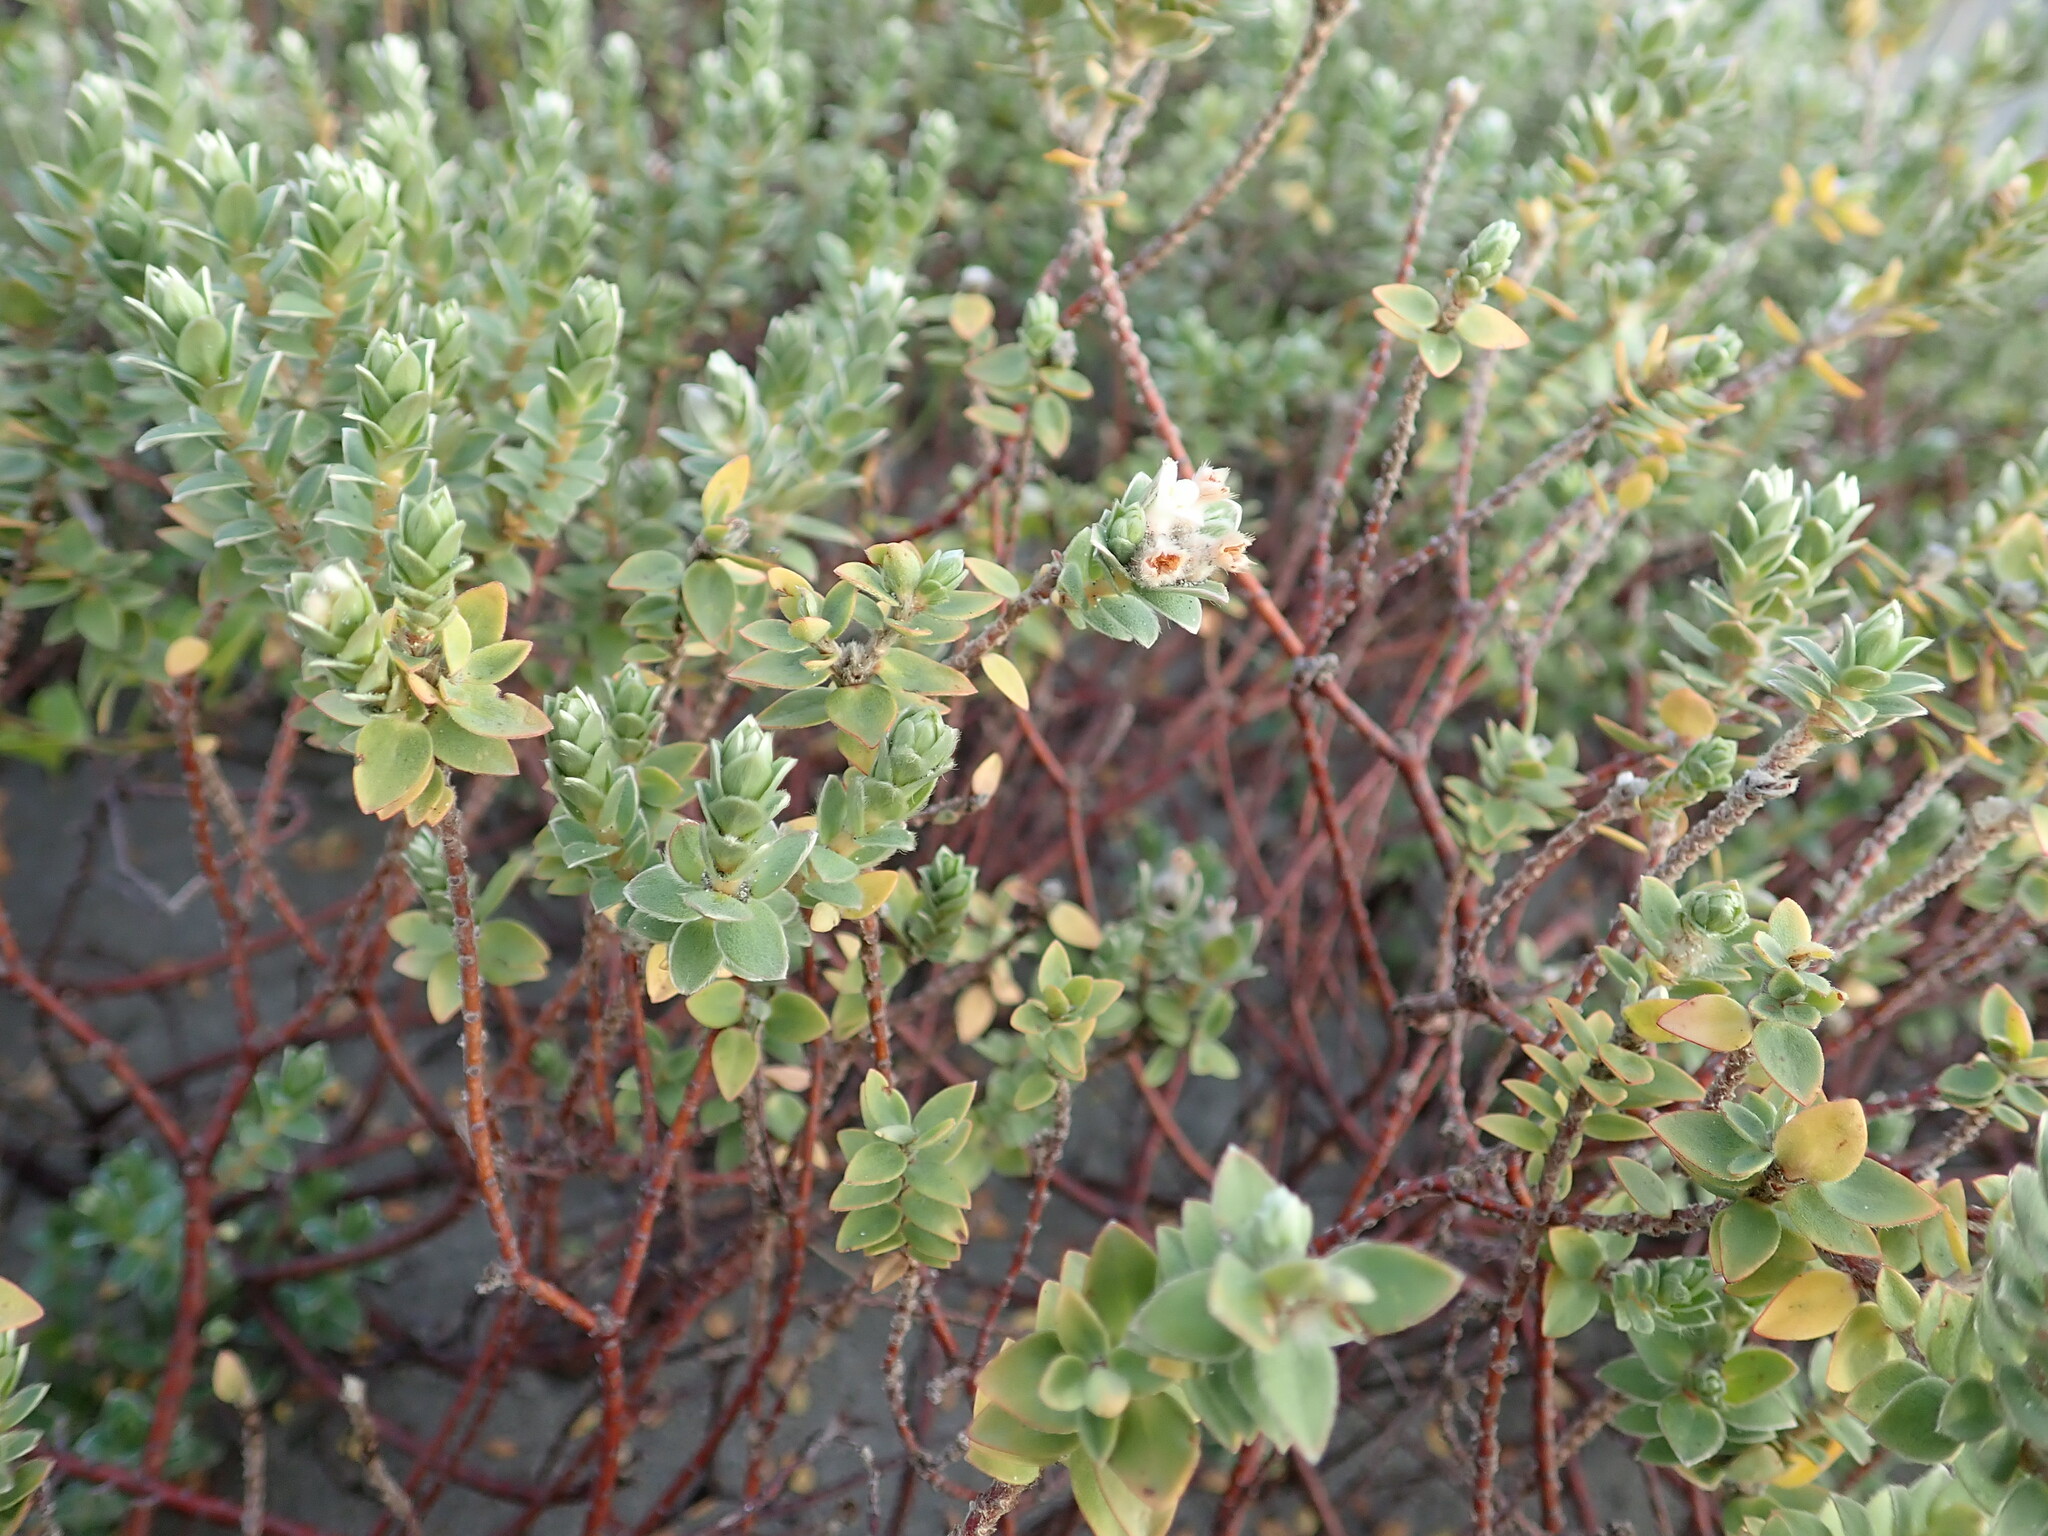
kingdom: Plantae
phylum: Tracheophyta
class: Magnoliopsida
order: Malvales
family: Thymelaeaceae
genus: Pimelea
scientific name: Pimelea villosa
